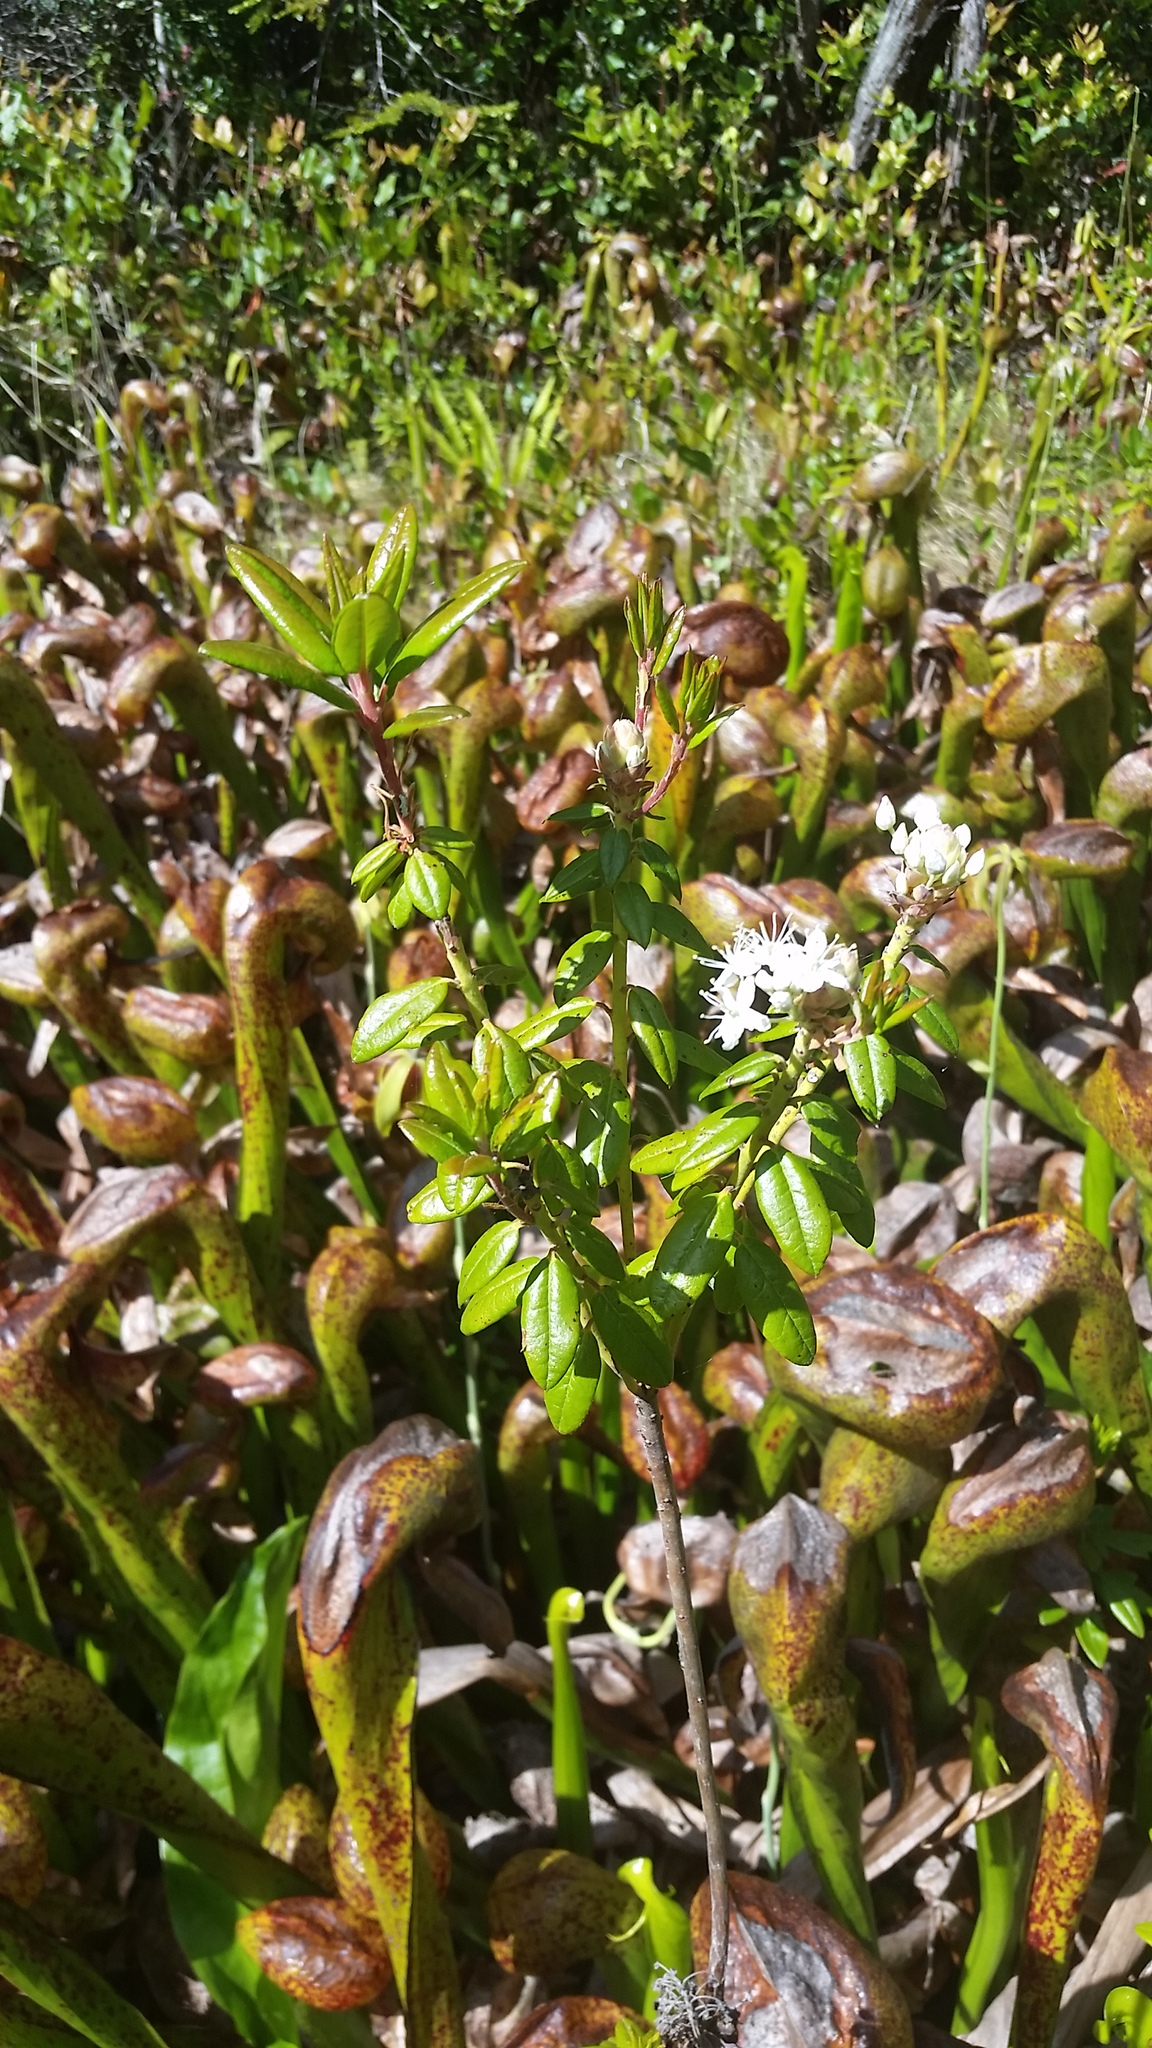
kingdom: Plantae
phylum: Tracheophyta
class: Magnoliopsida
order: Ericales
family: Ericaceae
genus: Rhododendron
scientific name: Rhododendron columbianum
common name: Western labrador tea
